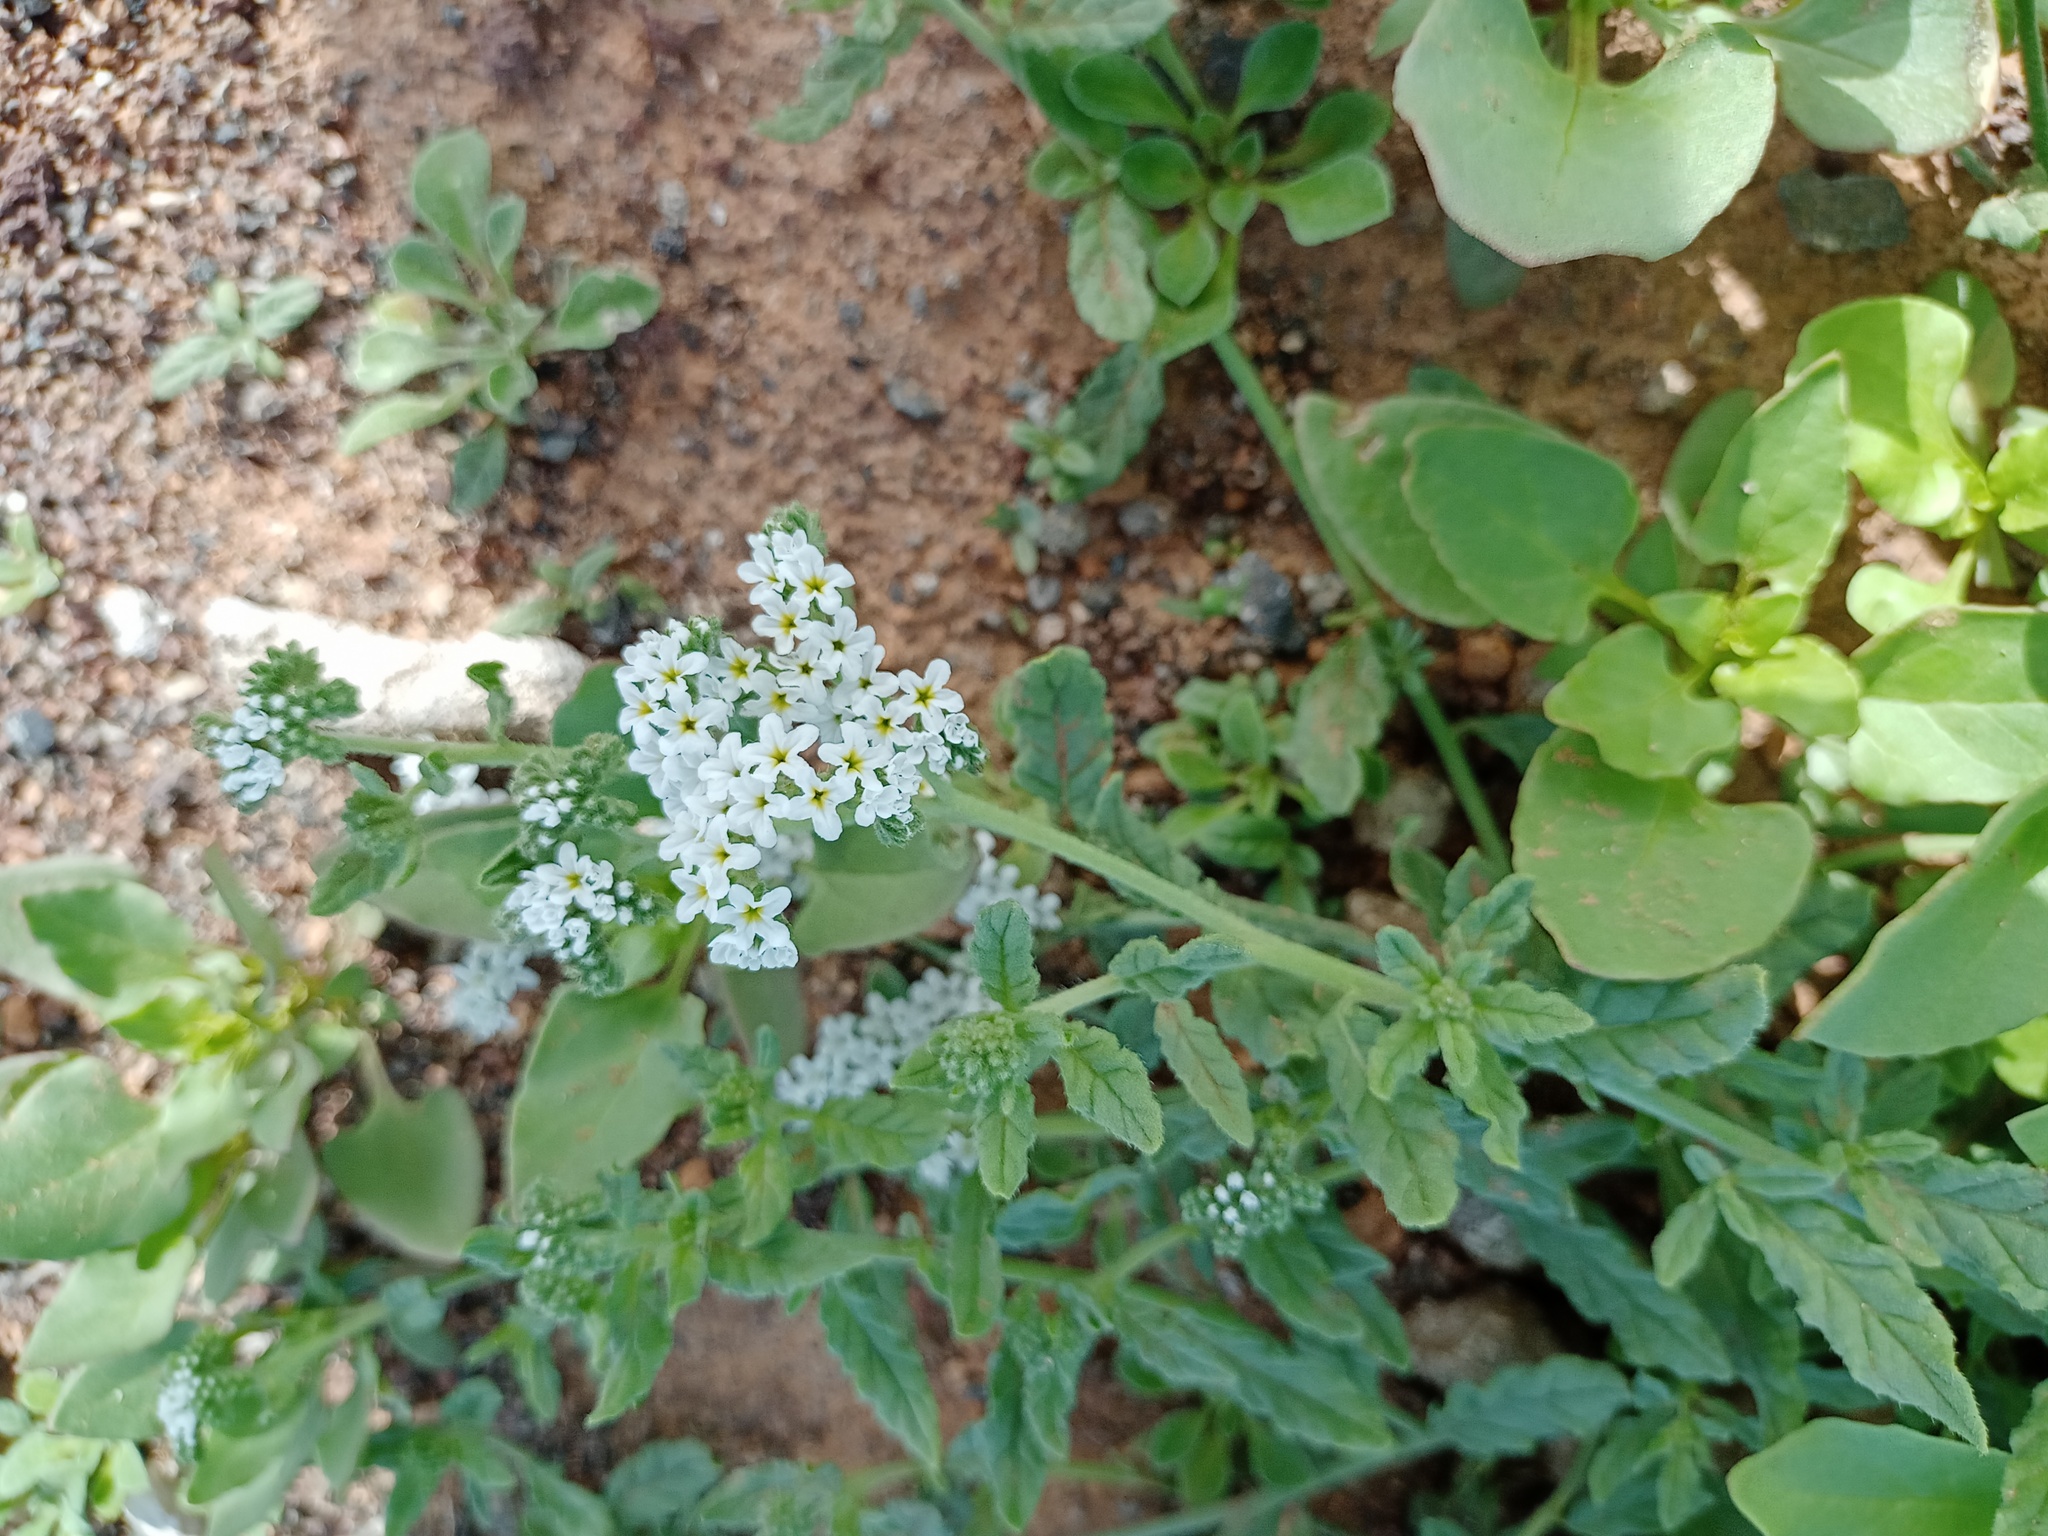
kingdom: Plantae
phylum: Tracheophyta
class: Magnoliopsida
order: Boraginales
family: Heliotropiaceae
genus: Heliotropium
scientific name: Heliotropium ramosissimum
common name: Wavy heliotrope
